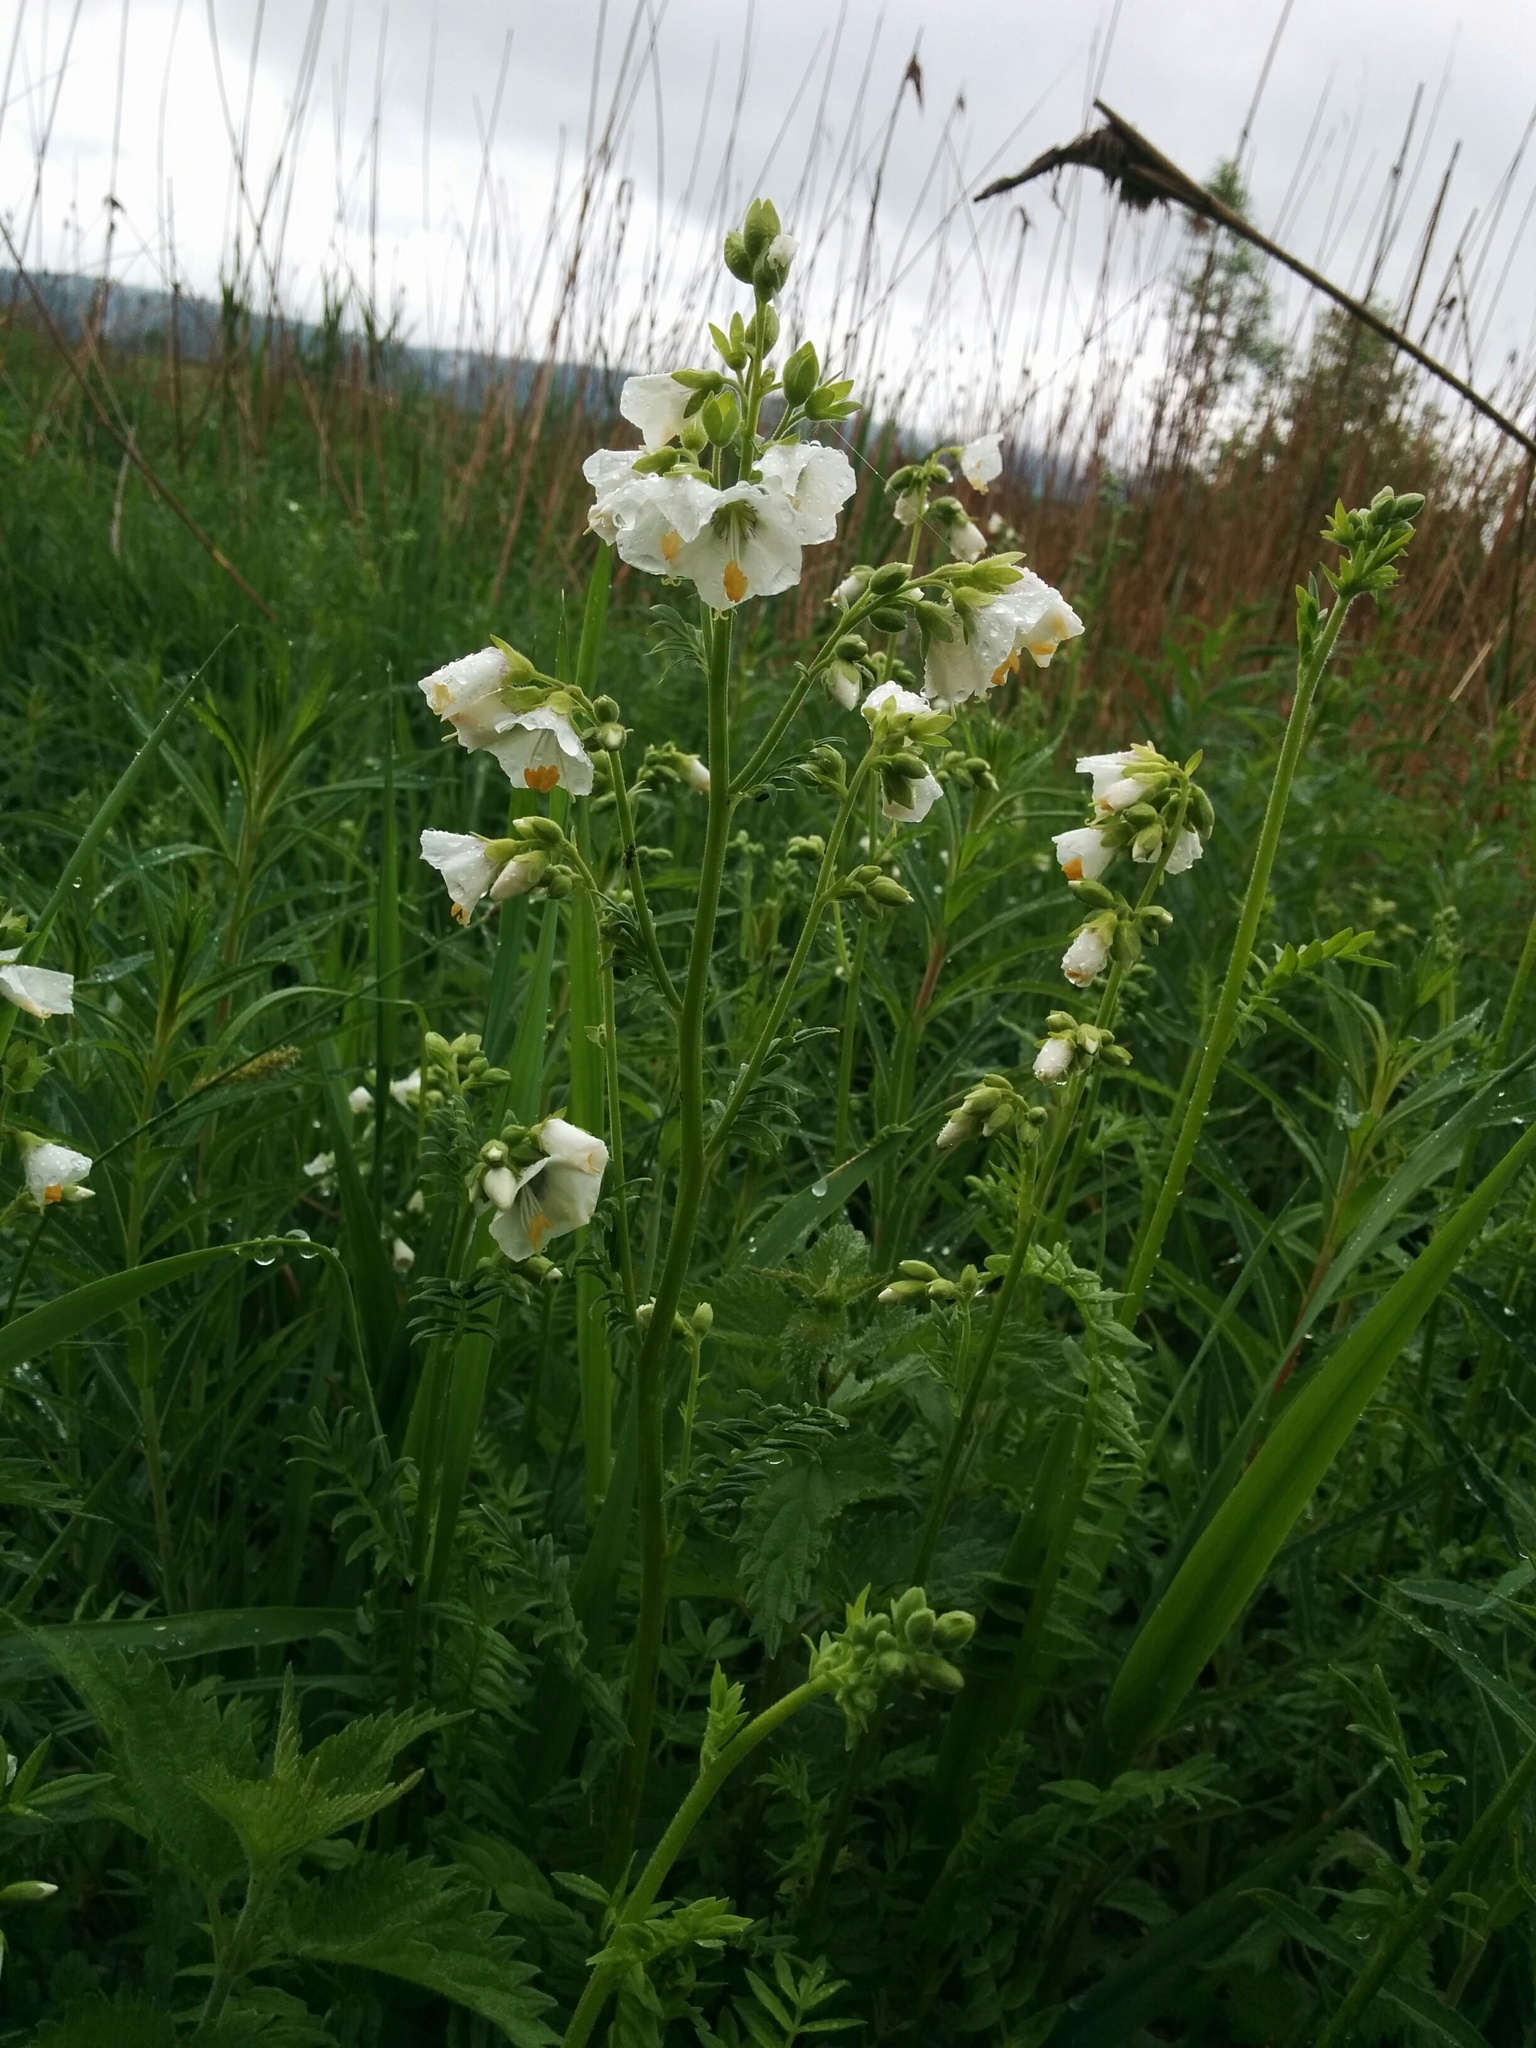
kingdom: Plantae
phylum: Tracheophyta
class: Magnoliopsida
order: Ericales
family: Polemoniaceae
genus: Polemonium
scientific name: Polemonium caeruleum
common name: Jacob's-ladder
